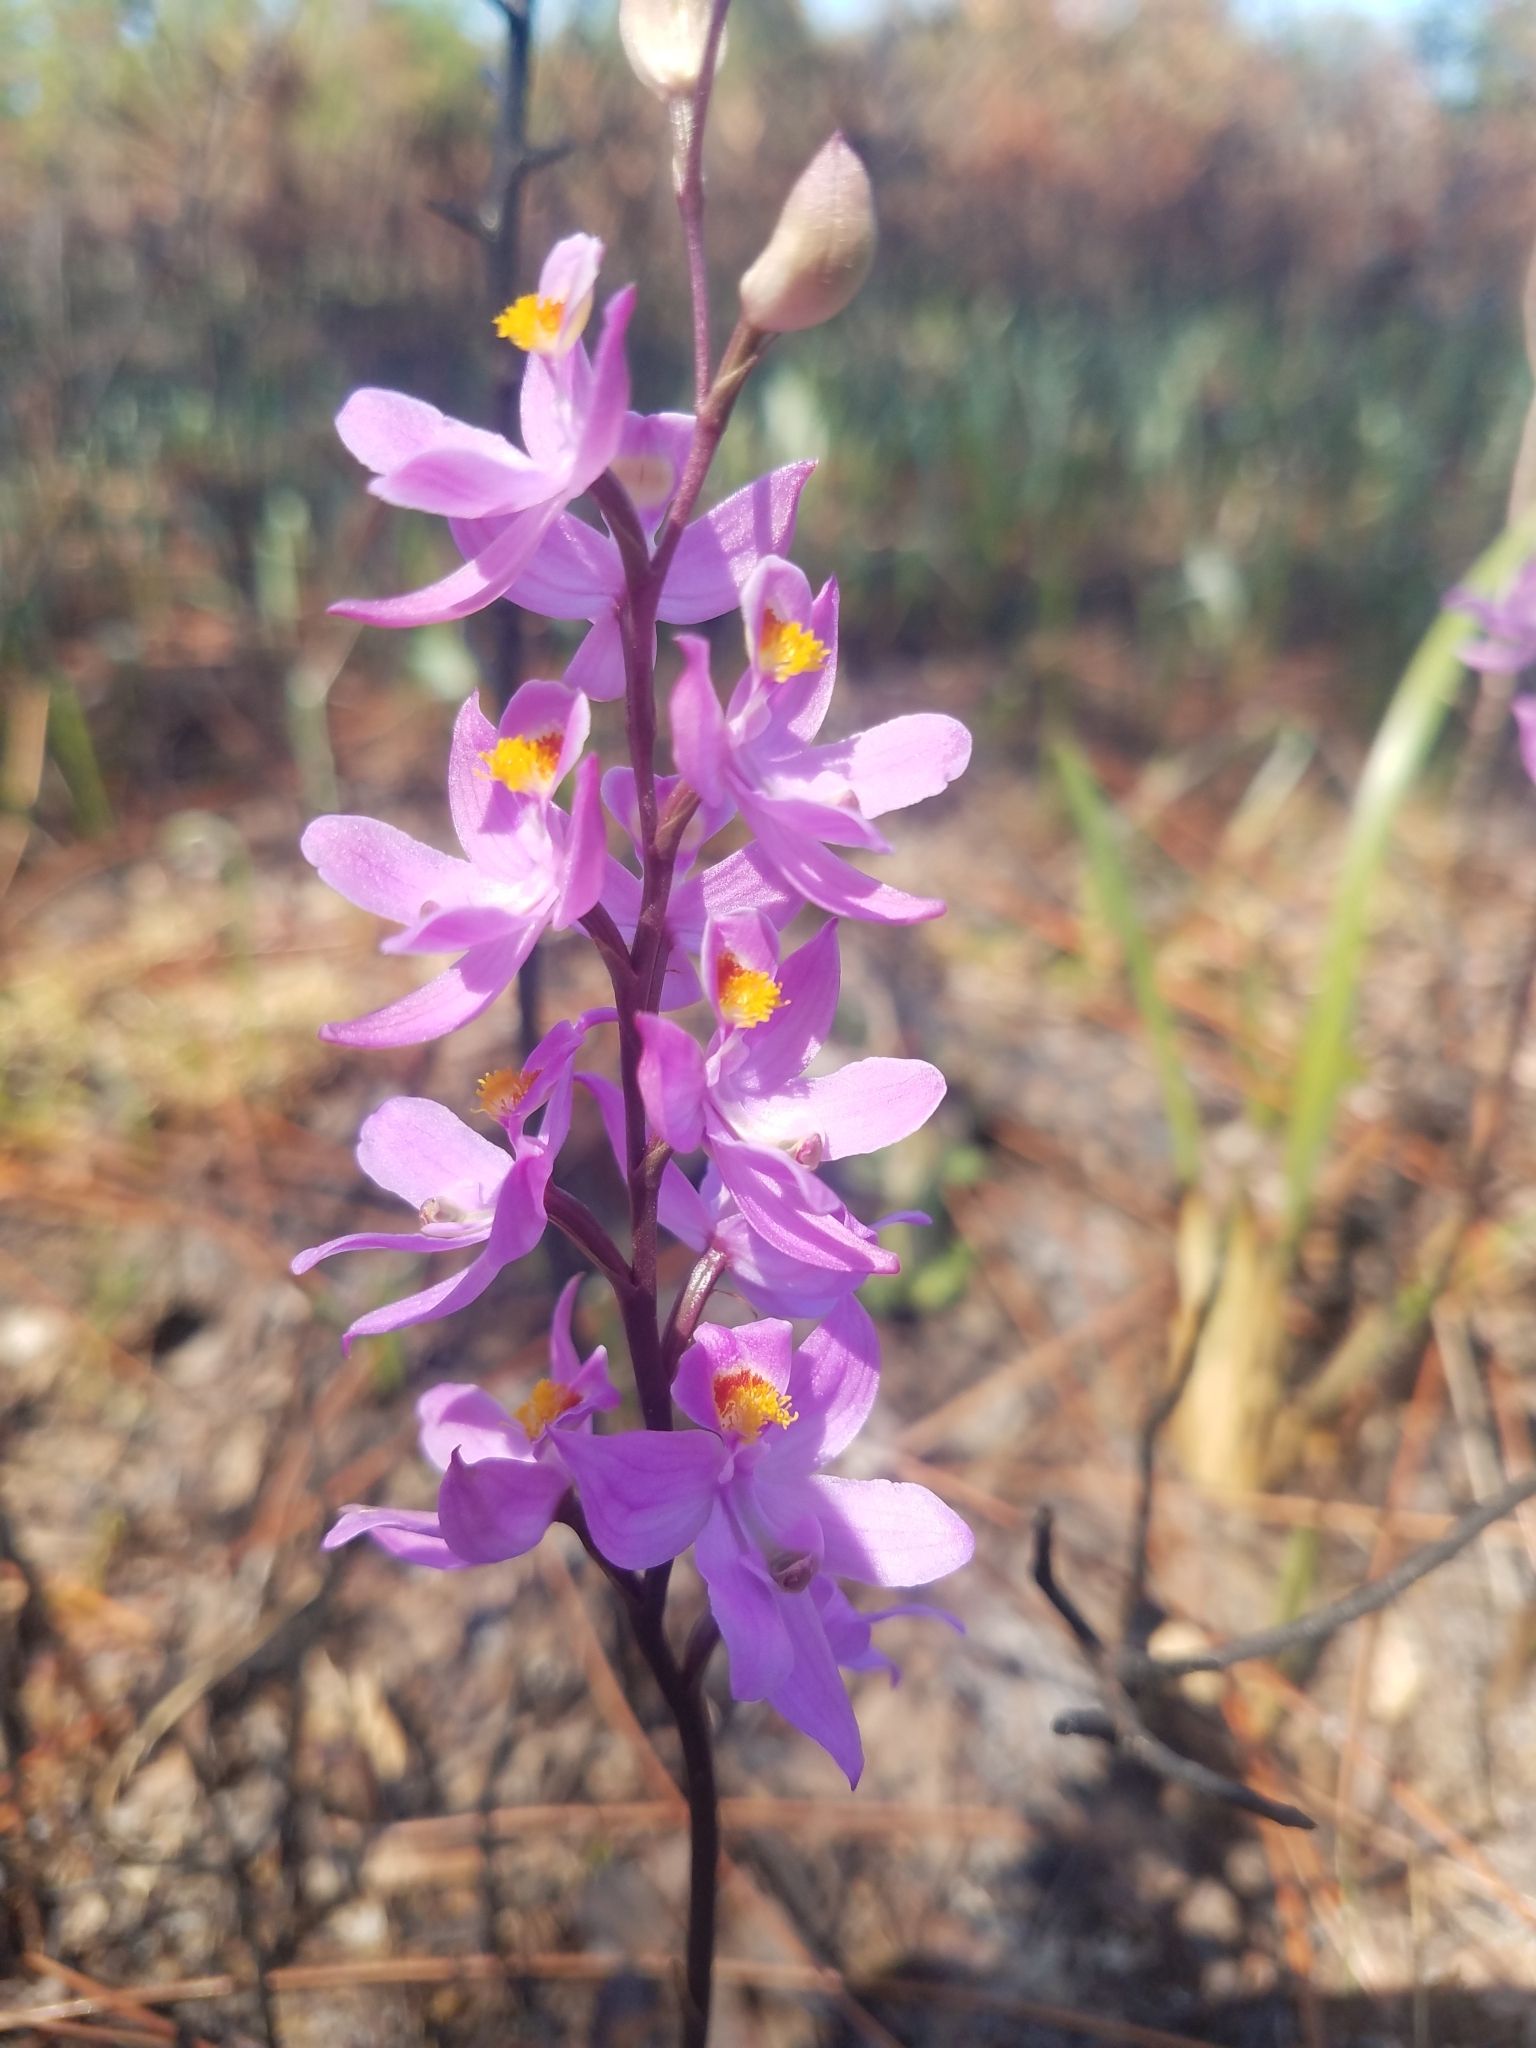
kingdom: Plantae
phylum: Tracheophyta
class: Liliopsida
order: Asparagales
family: Orchidaceae
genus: Calopogon
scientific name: Calopogon multiflorus
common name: Many-flowered grass-pink orchid
